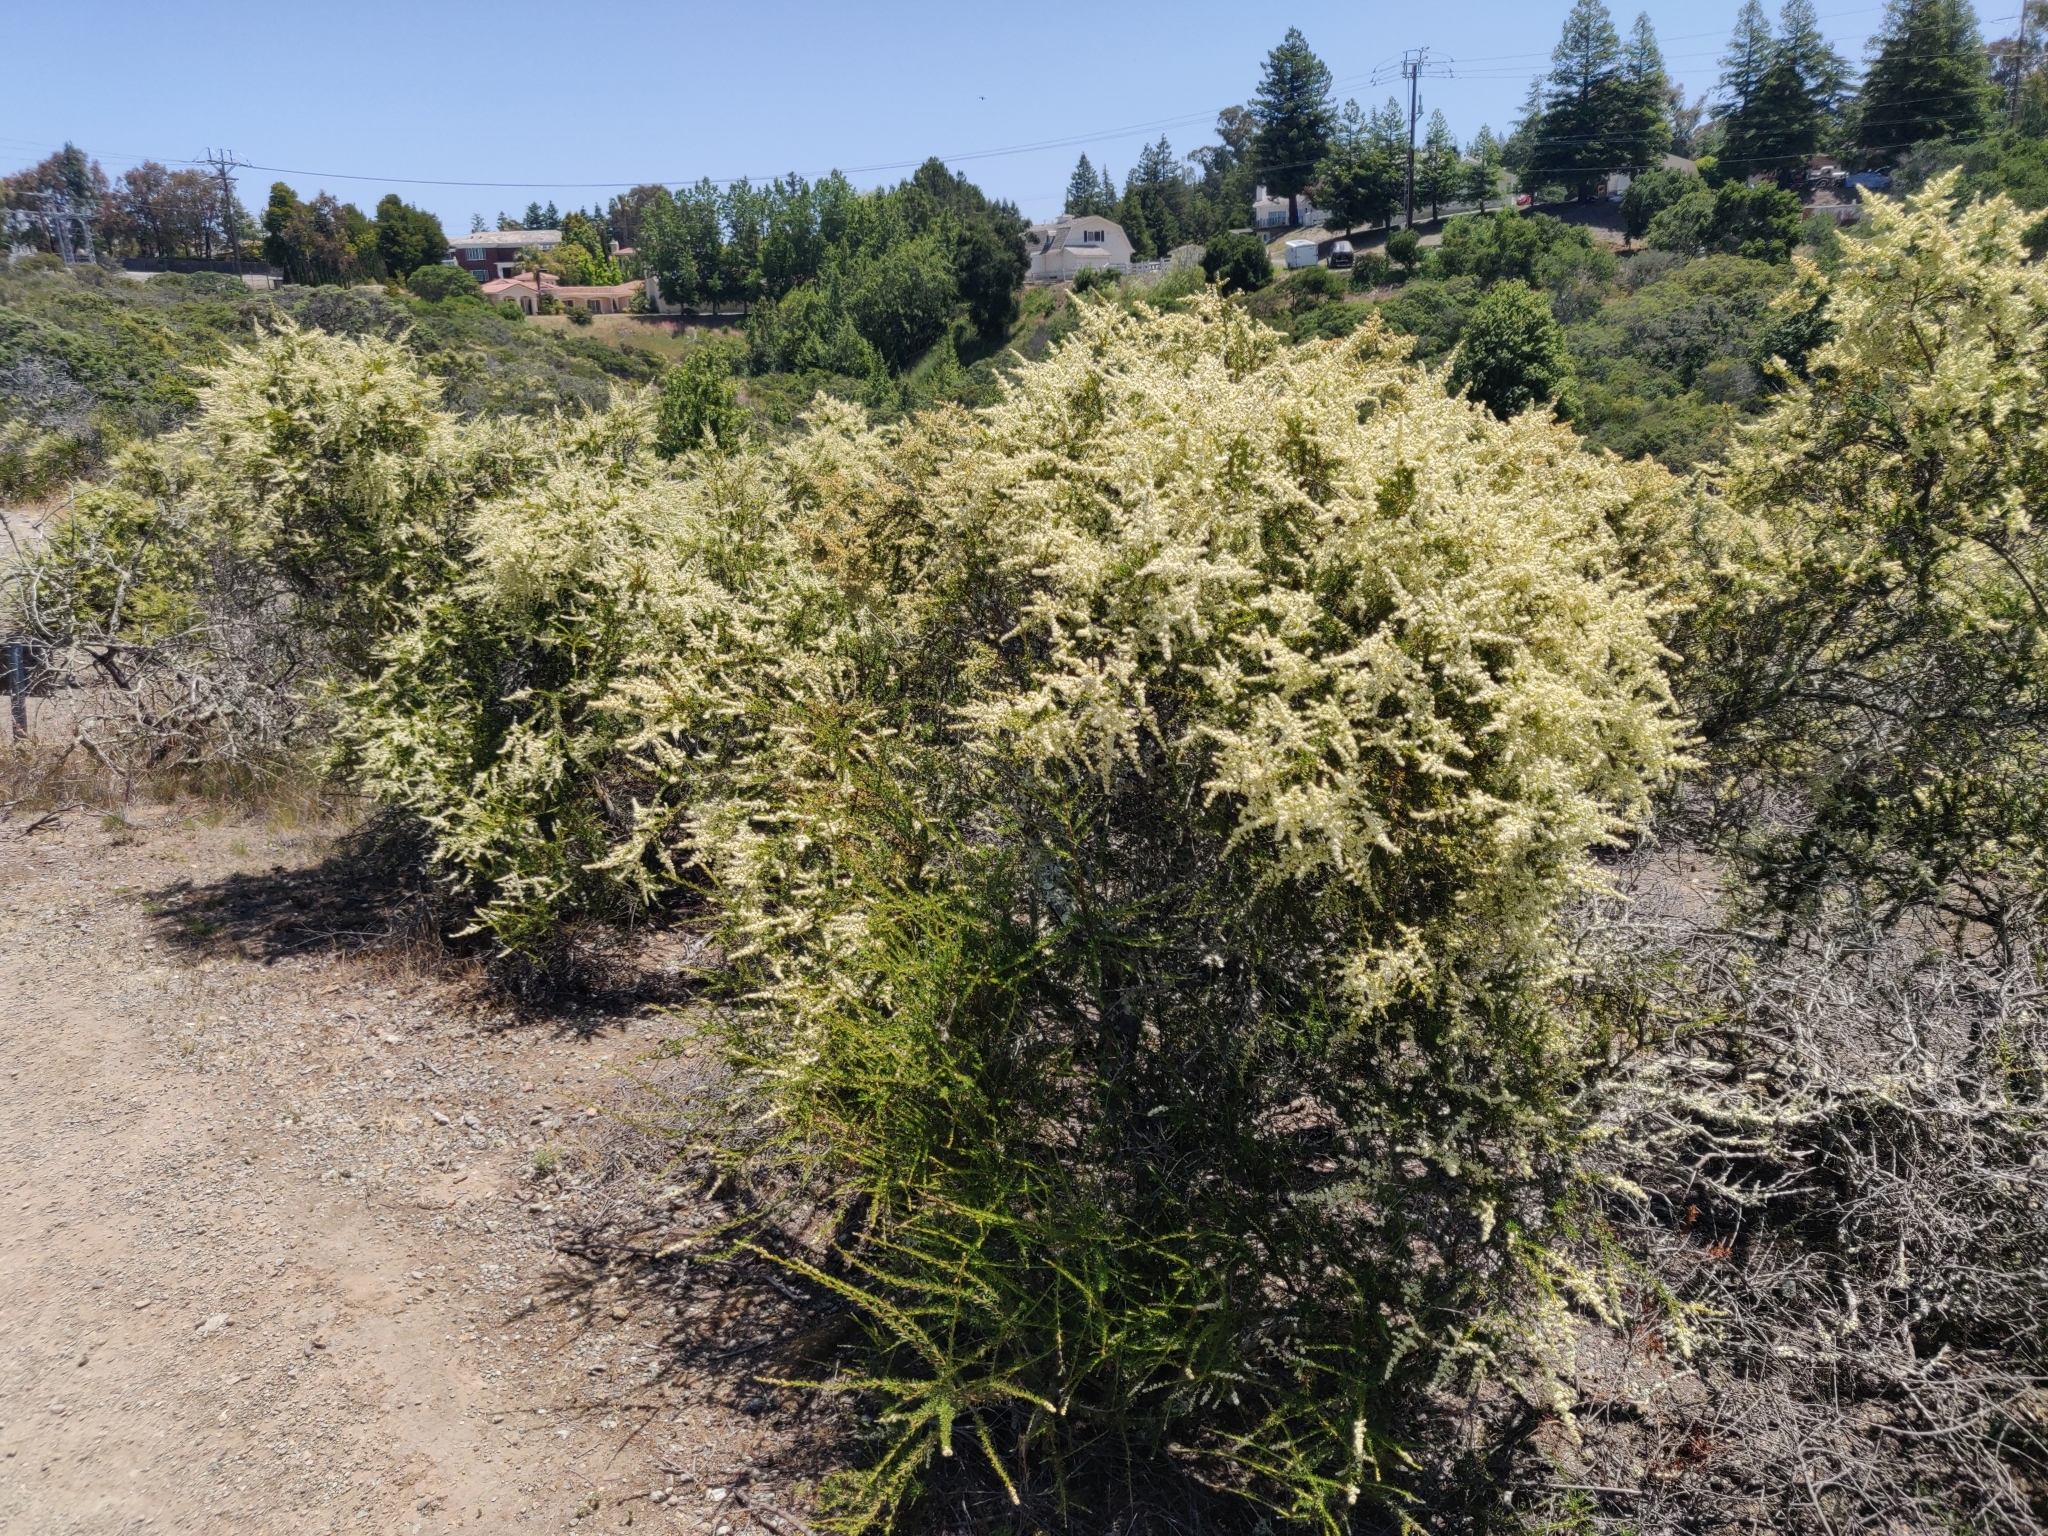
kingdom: Plantae
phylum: Tracheophyta
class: Magnoliopsida
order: Rosales
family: Rosaceae
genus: Adenostoma
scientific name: Adenostoma fasciculatum
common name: Chamise
